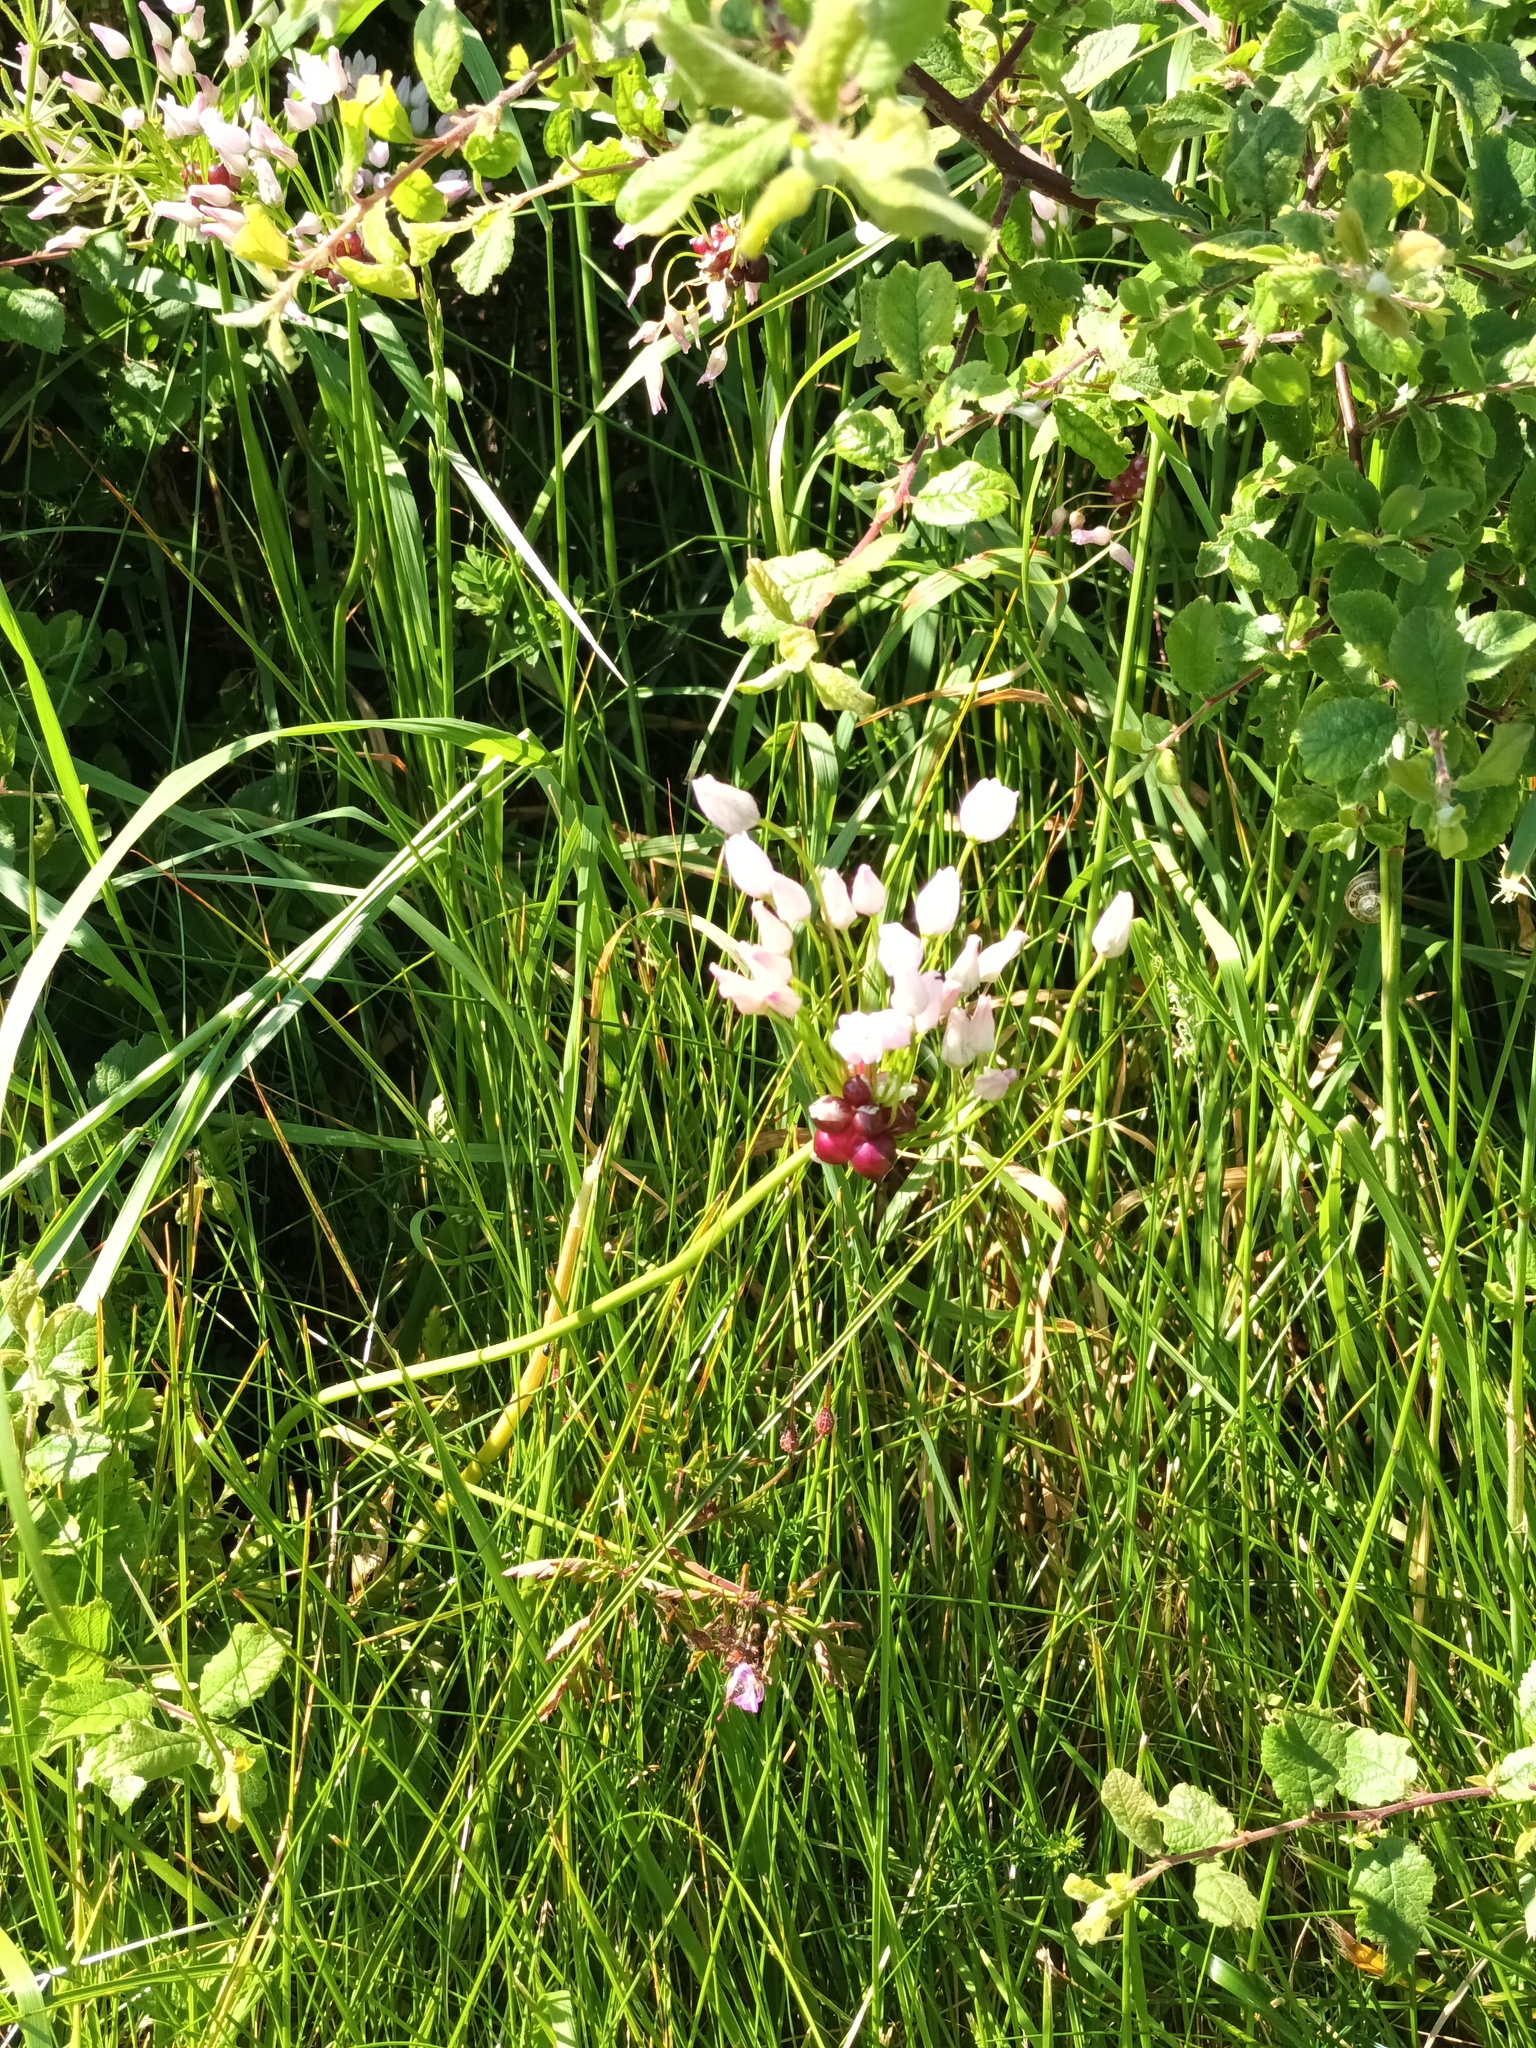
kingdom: Plantae
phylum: Tracheophyta
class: Liliopsida
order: Asparagales
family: Amaryllidaceae
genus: Allium
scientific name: Allium roseum
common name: Rosy garlic
